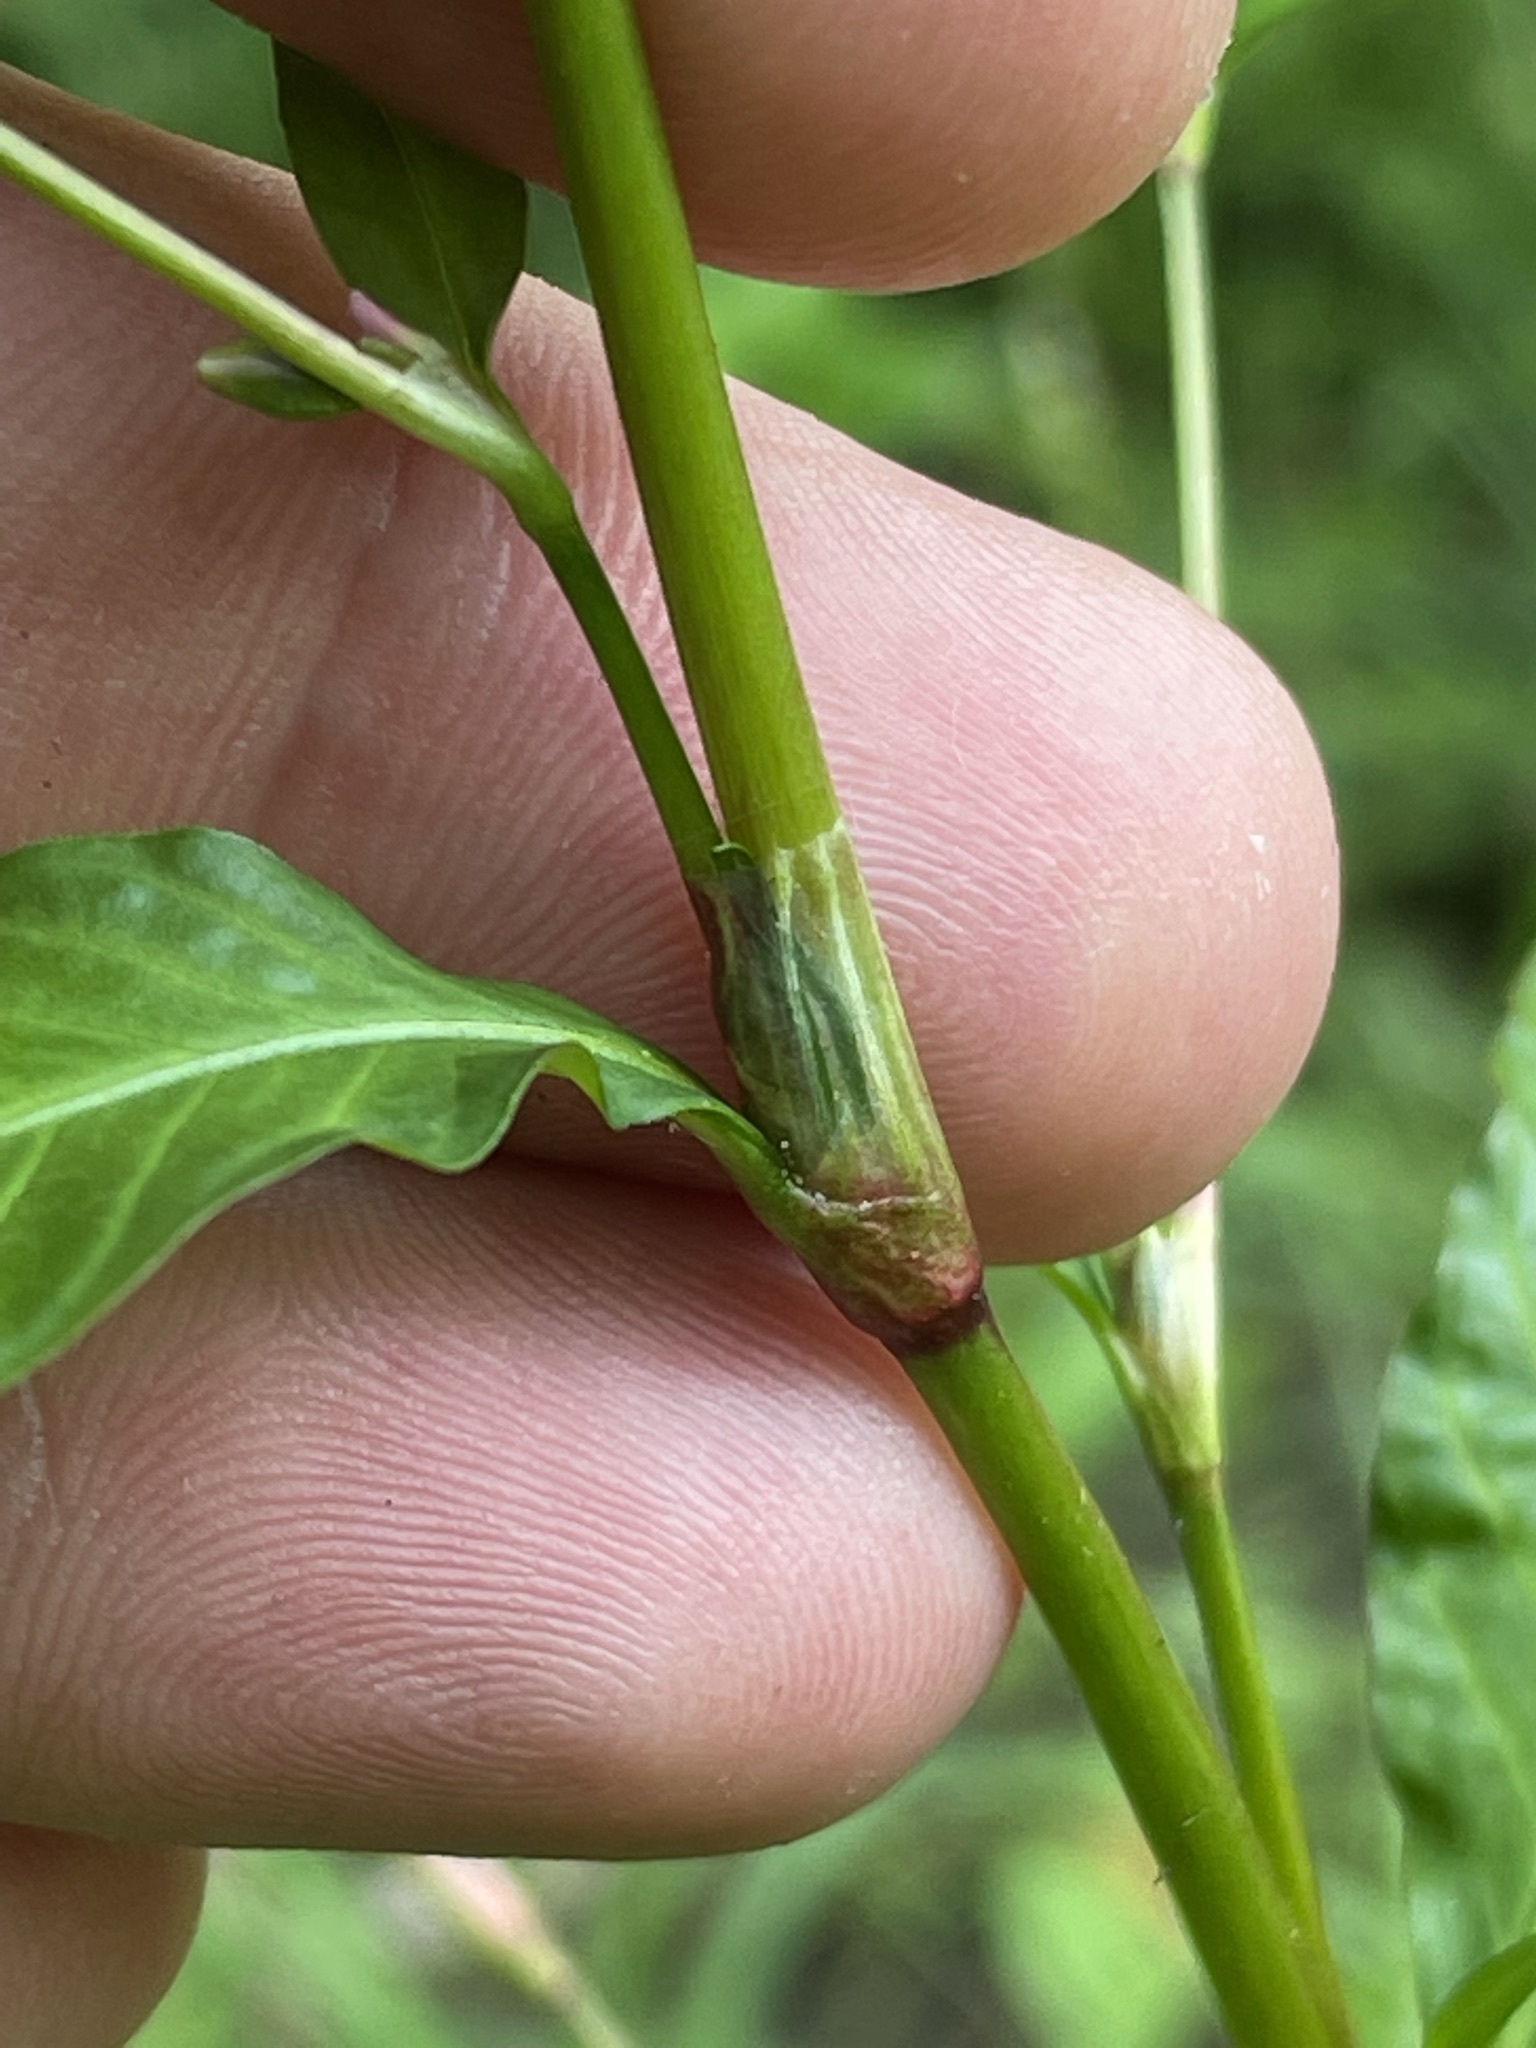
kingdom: Plantae
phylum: Tracheophyta
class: Magnoliopsida
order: Caryophyllales
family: Polygonaceae
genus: Persicaria
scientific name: Persicaria hydropiper
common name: Water-pepper
